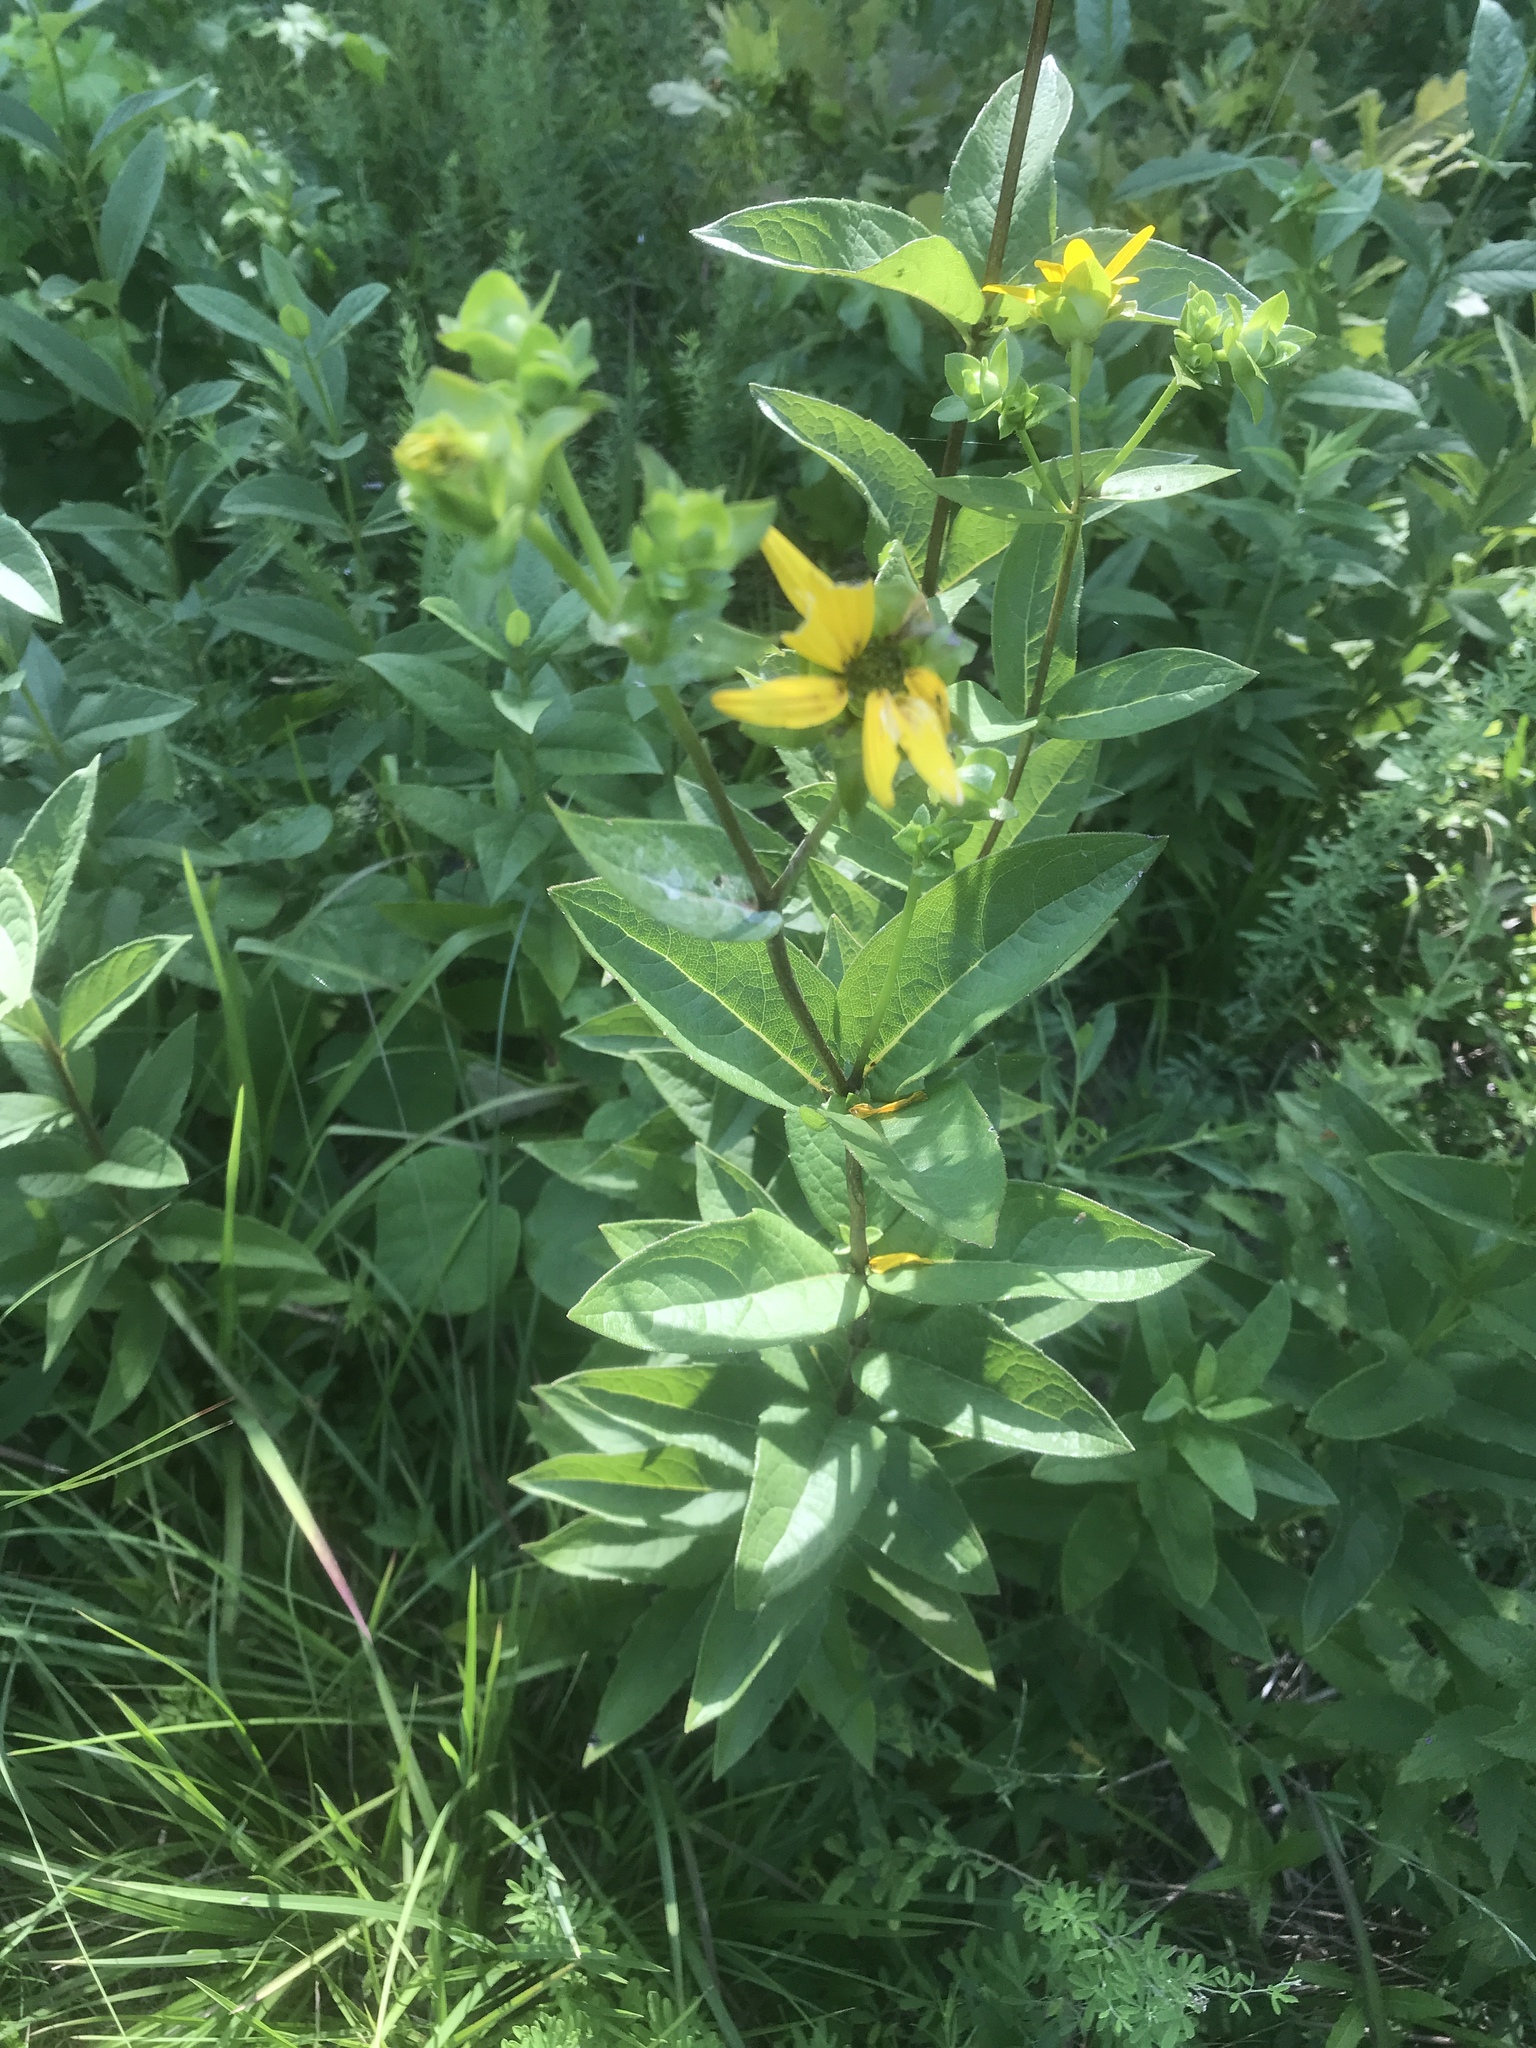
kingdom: Plantae
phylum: Tracheophyta
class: Magnoliopsida
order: Asterales
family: Asteraceae
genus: Silphium
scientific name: Silphium asteriscus
